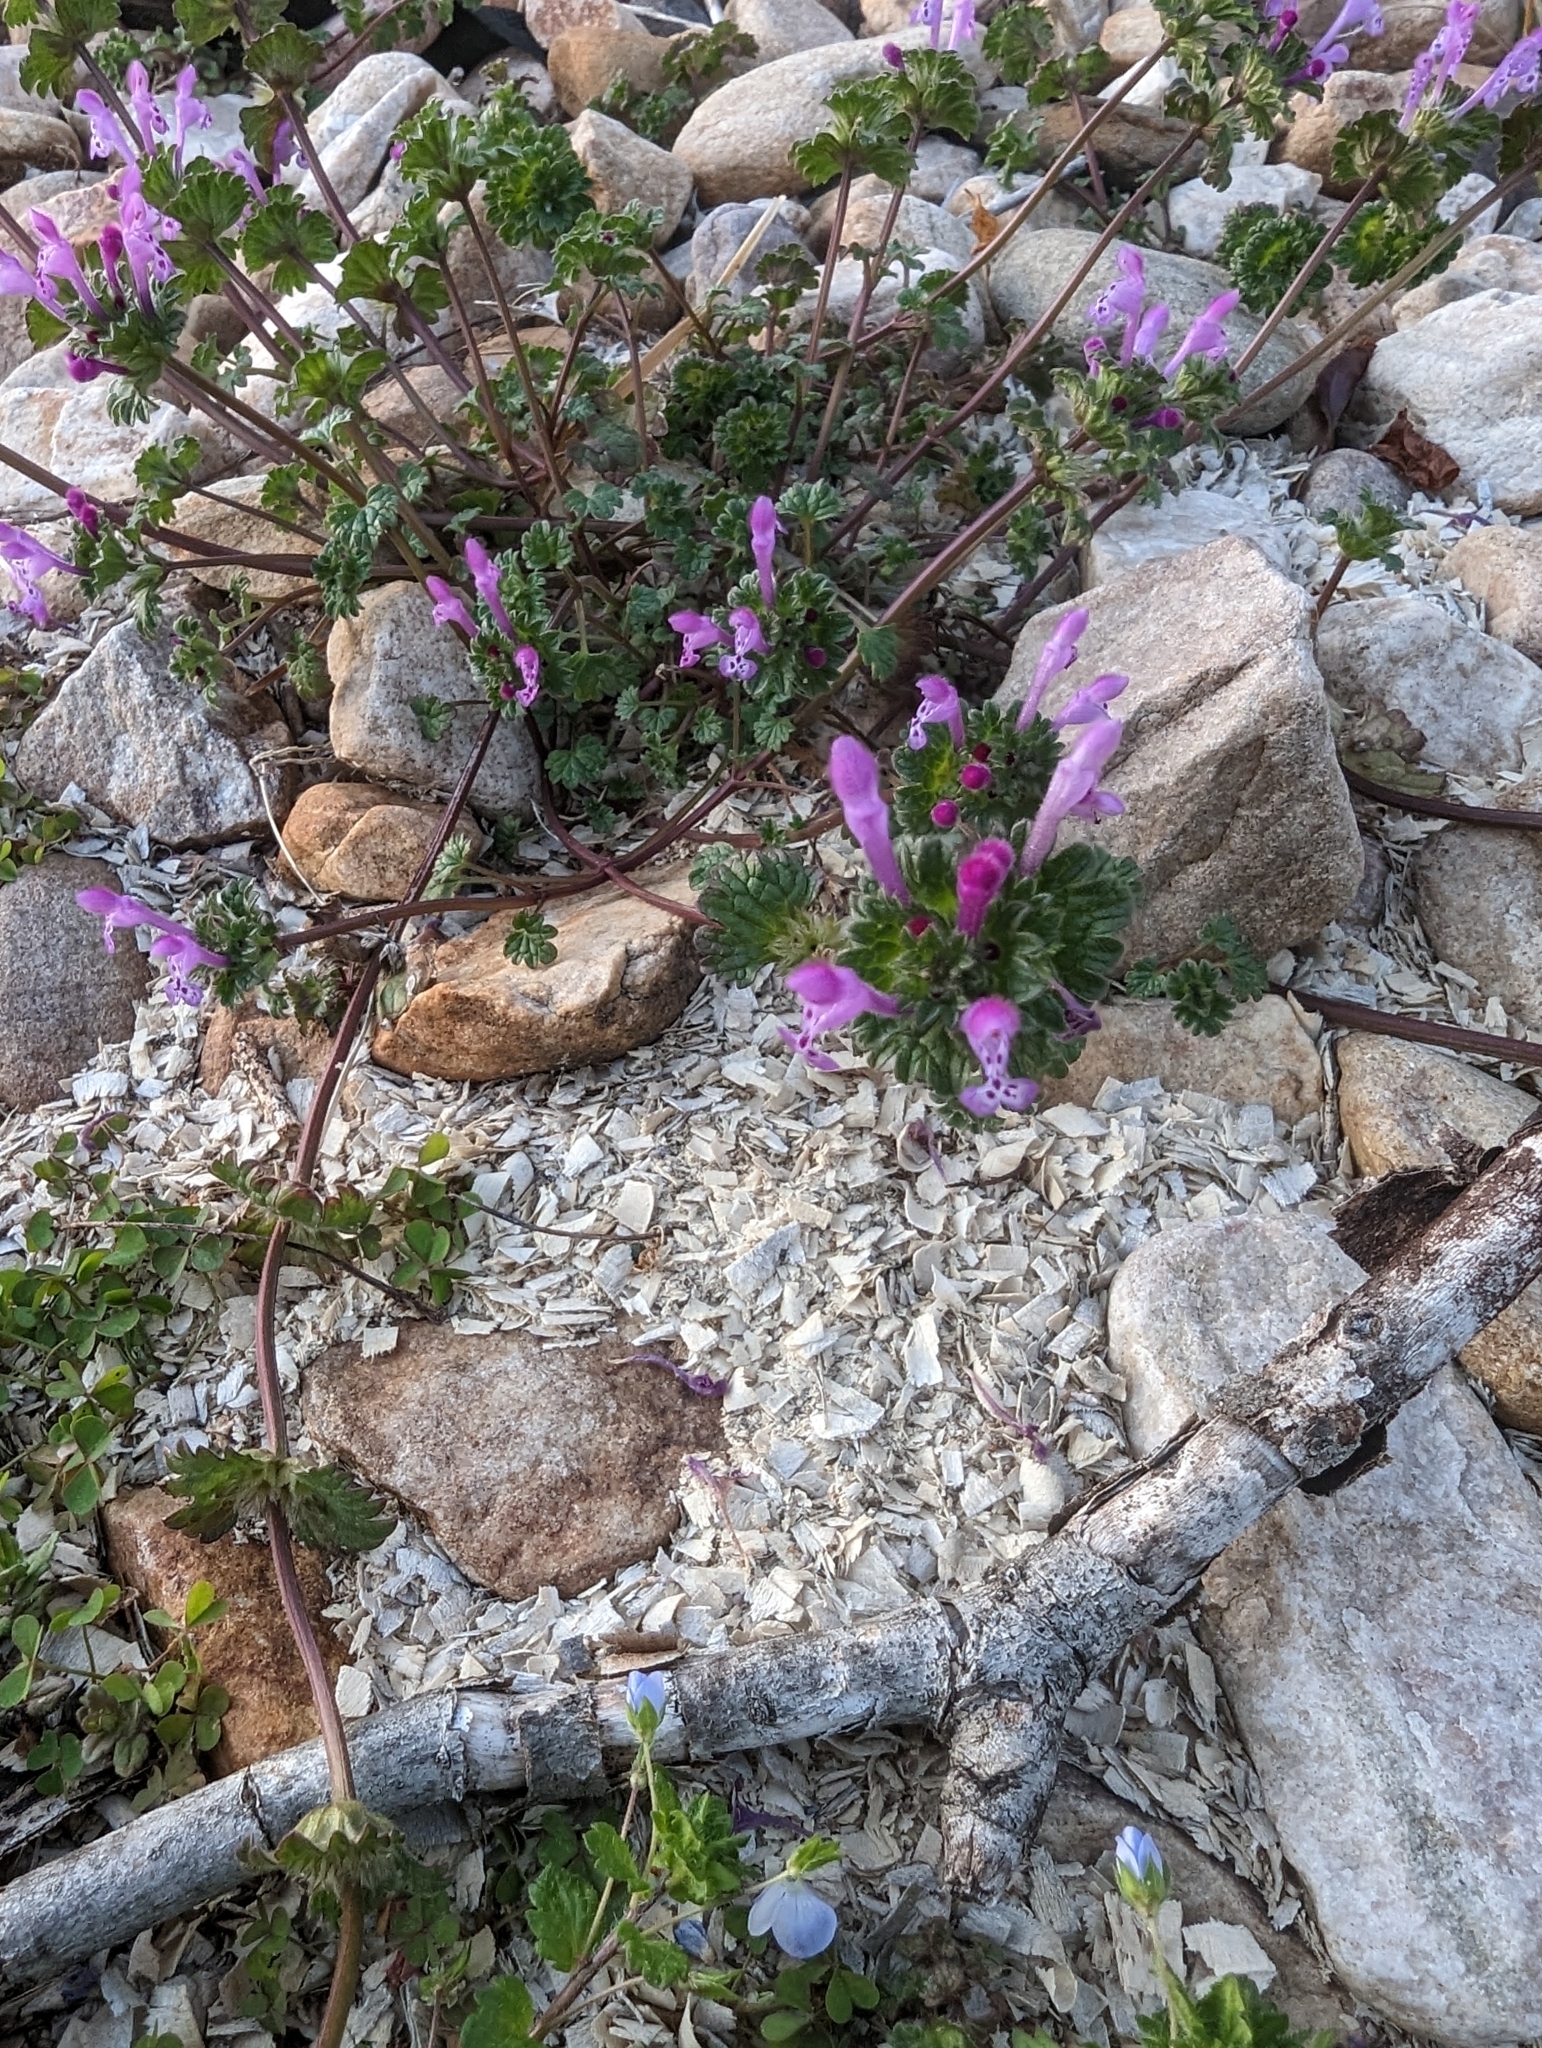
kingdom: Plantae
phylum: Tracheophyta
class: Magnoliopsida
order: Lamiales
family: Lamiaceae
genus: Lamium
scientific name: Lamium amplexicaule
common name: Henbit dead-nettle
